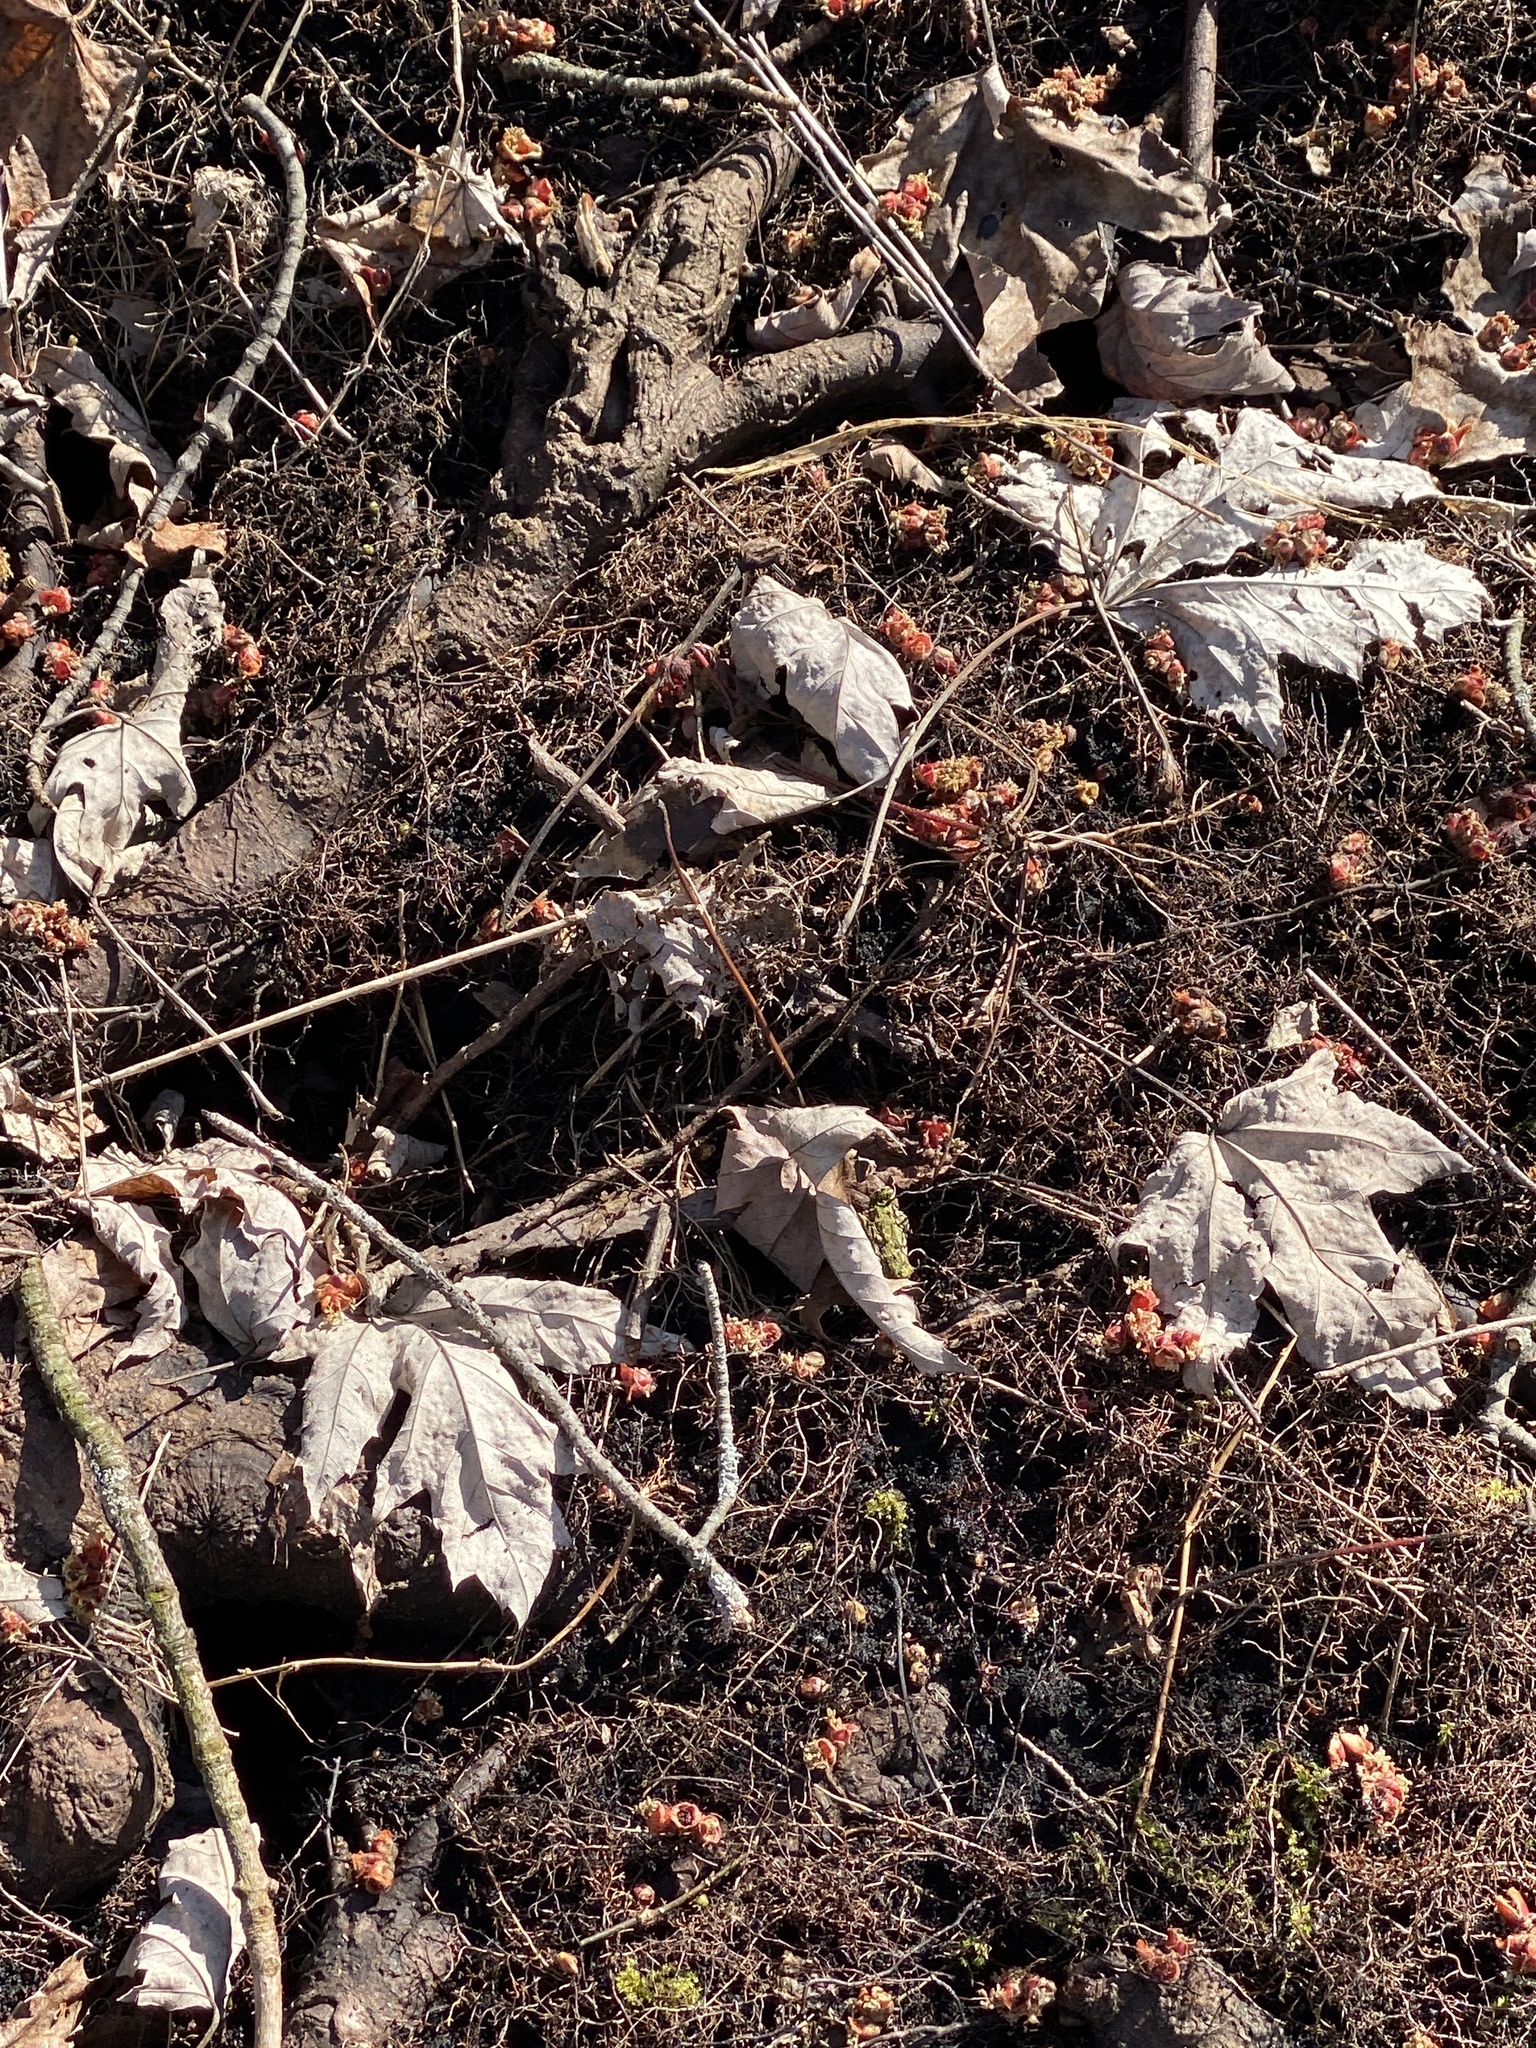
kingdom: Plantae
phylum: Tracheophyta
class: Magnoliopsida
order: Sapindales
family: Sapindaceae
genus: Acer
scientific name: Acer saccharinum
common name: Silver maple
